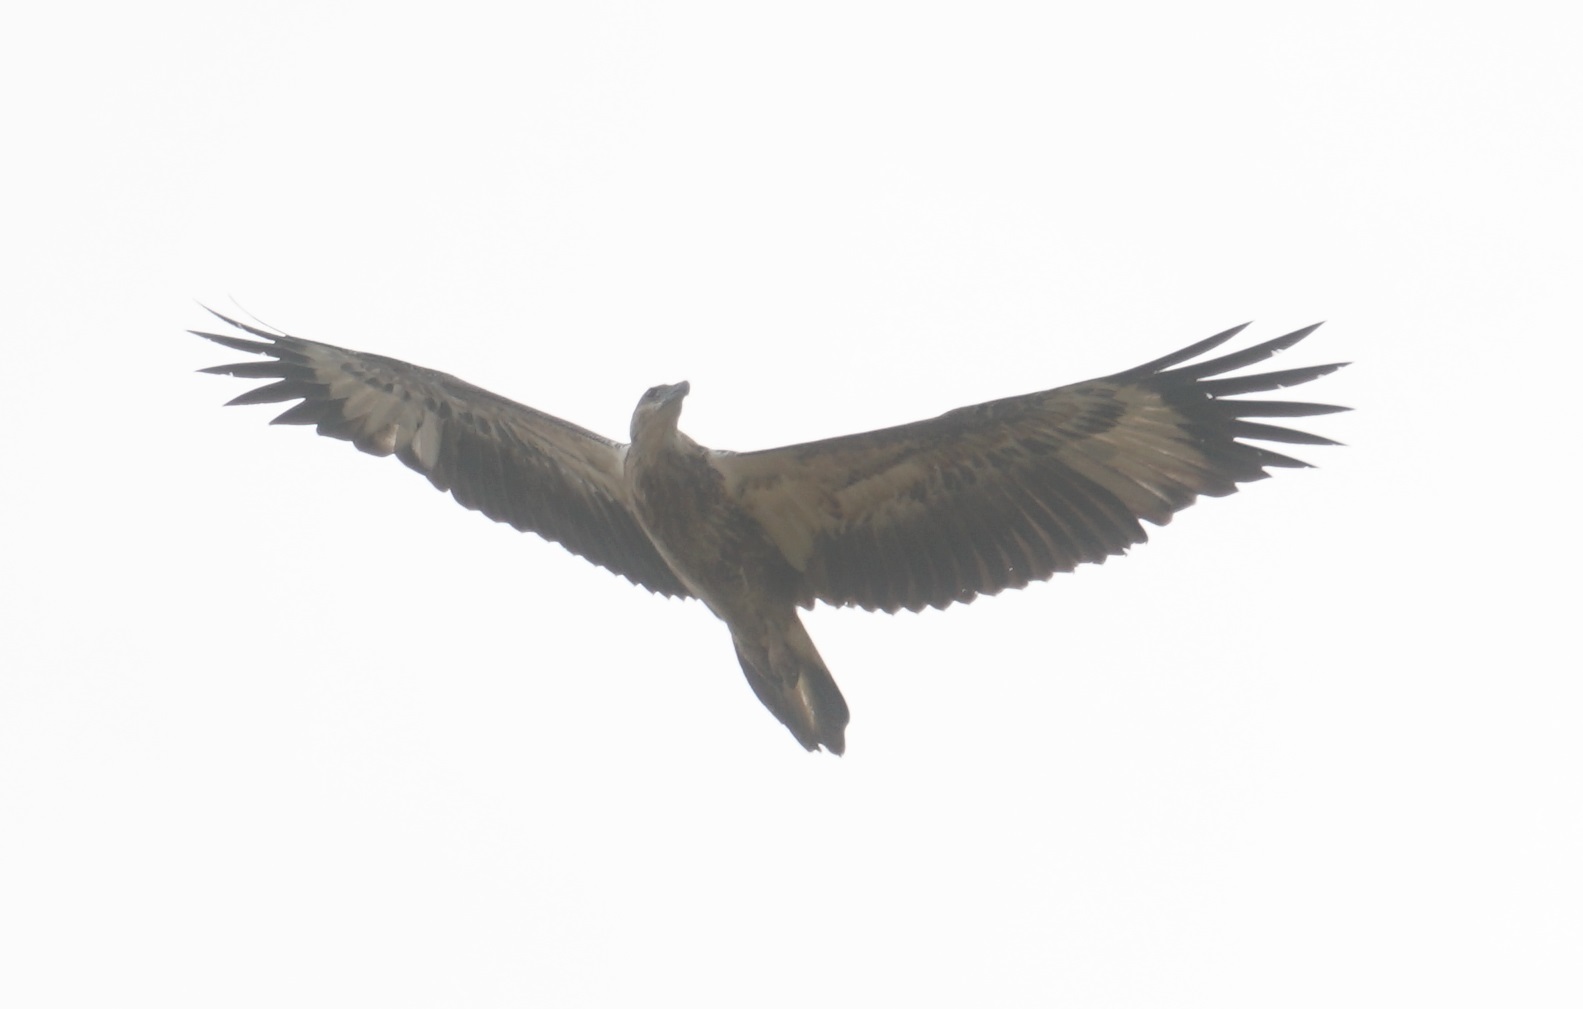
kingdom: Animalia
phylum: Chordata
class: Aves
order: Accipitriformes
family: Accipitridae
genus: Haliaeetus
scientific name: Haliaeetus leucogaster
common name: White-bellied sea eagle
